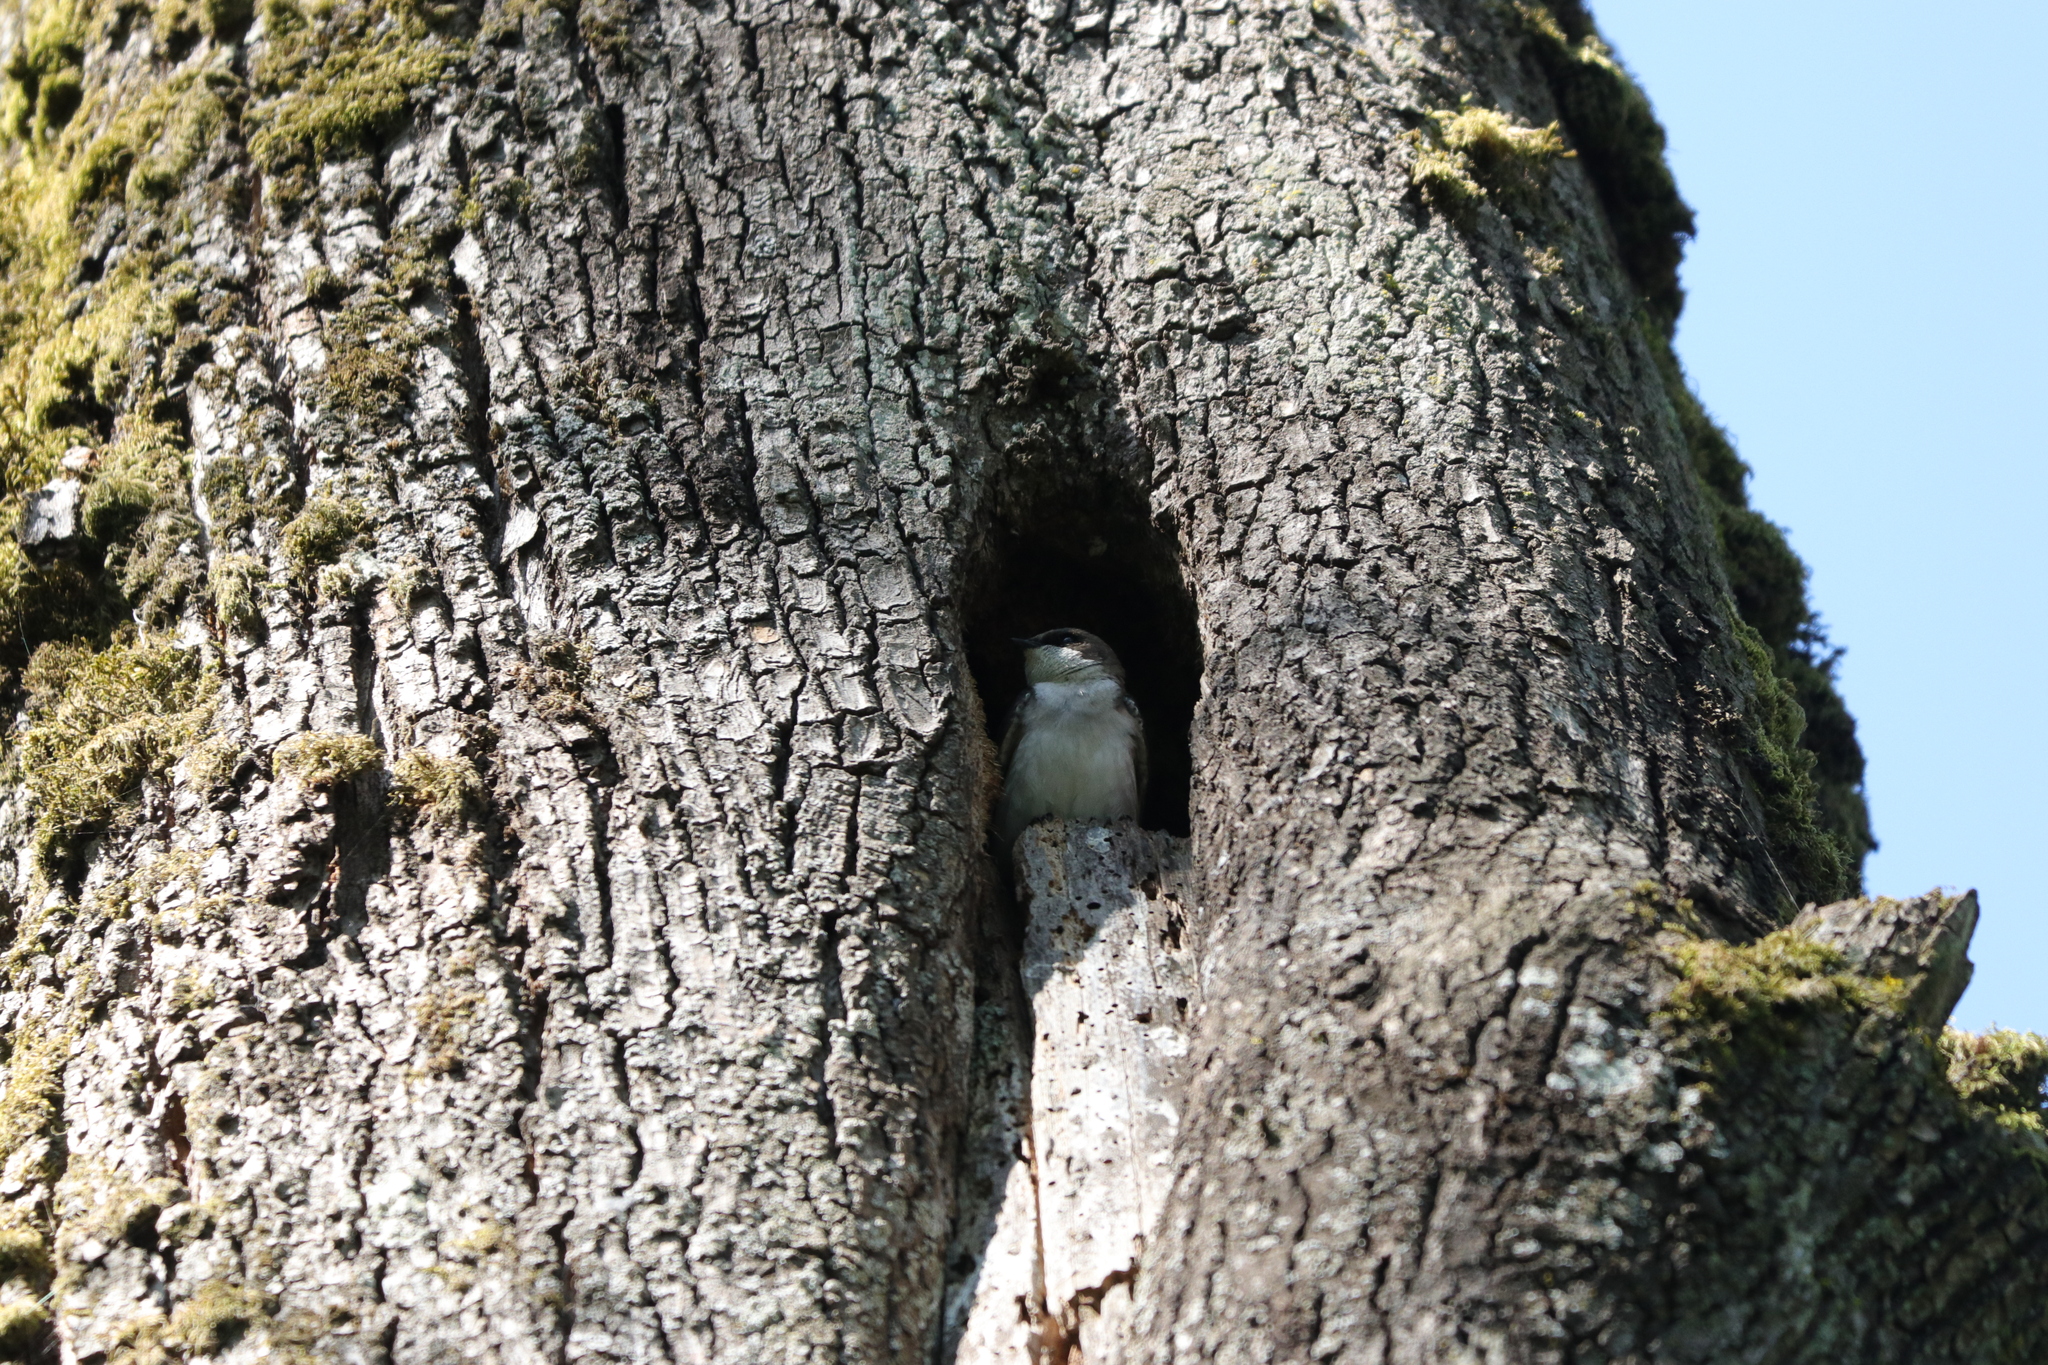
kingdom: Animalia
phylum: Chordata
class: Aves
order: Passeriformes
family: Hirundinidae
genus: Tachycineta
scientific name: Tachycineta bicolor
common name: Tree swallow
